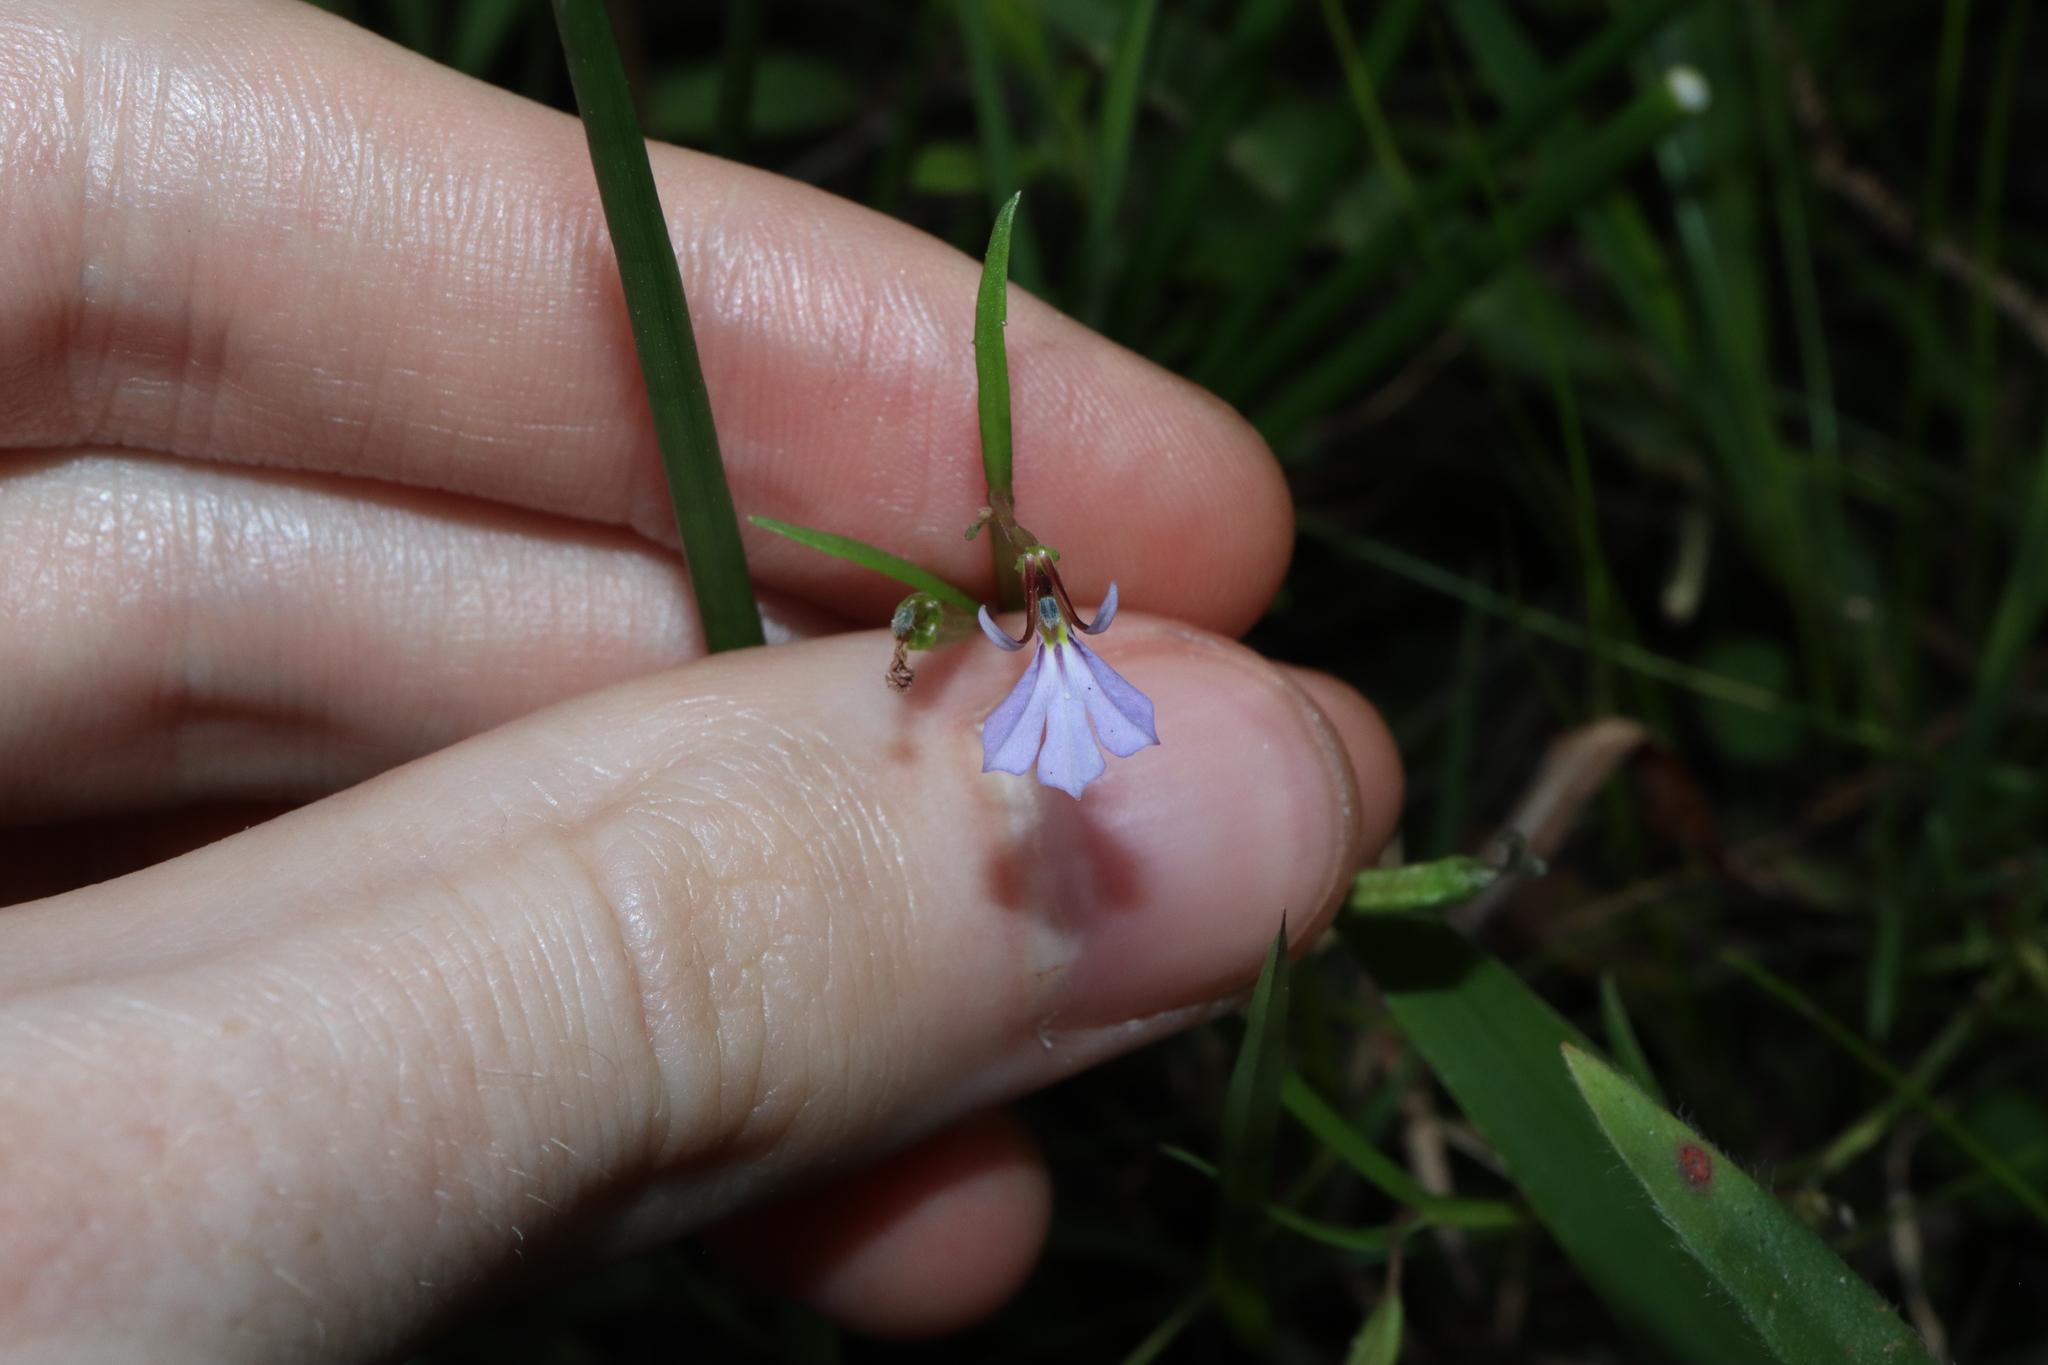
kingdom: Plantae
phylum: Tracheophyta
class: Magnoliopsida
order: Asterales
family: Campanulaceae
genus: Lobelia
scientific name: Lobelia anceps
